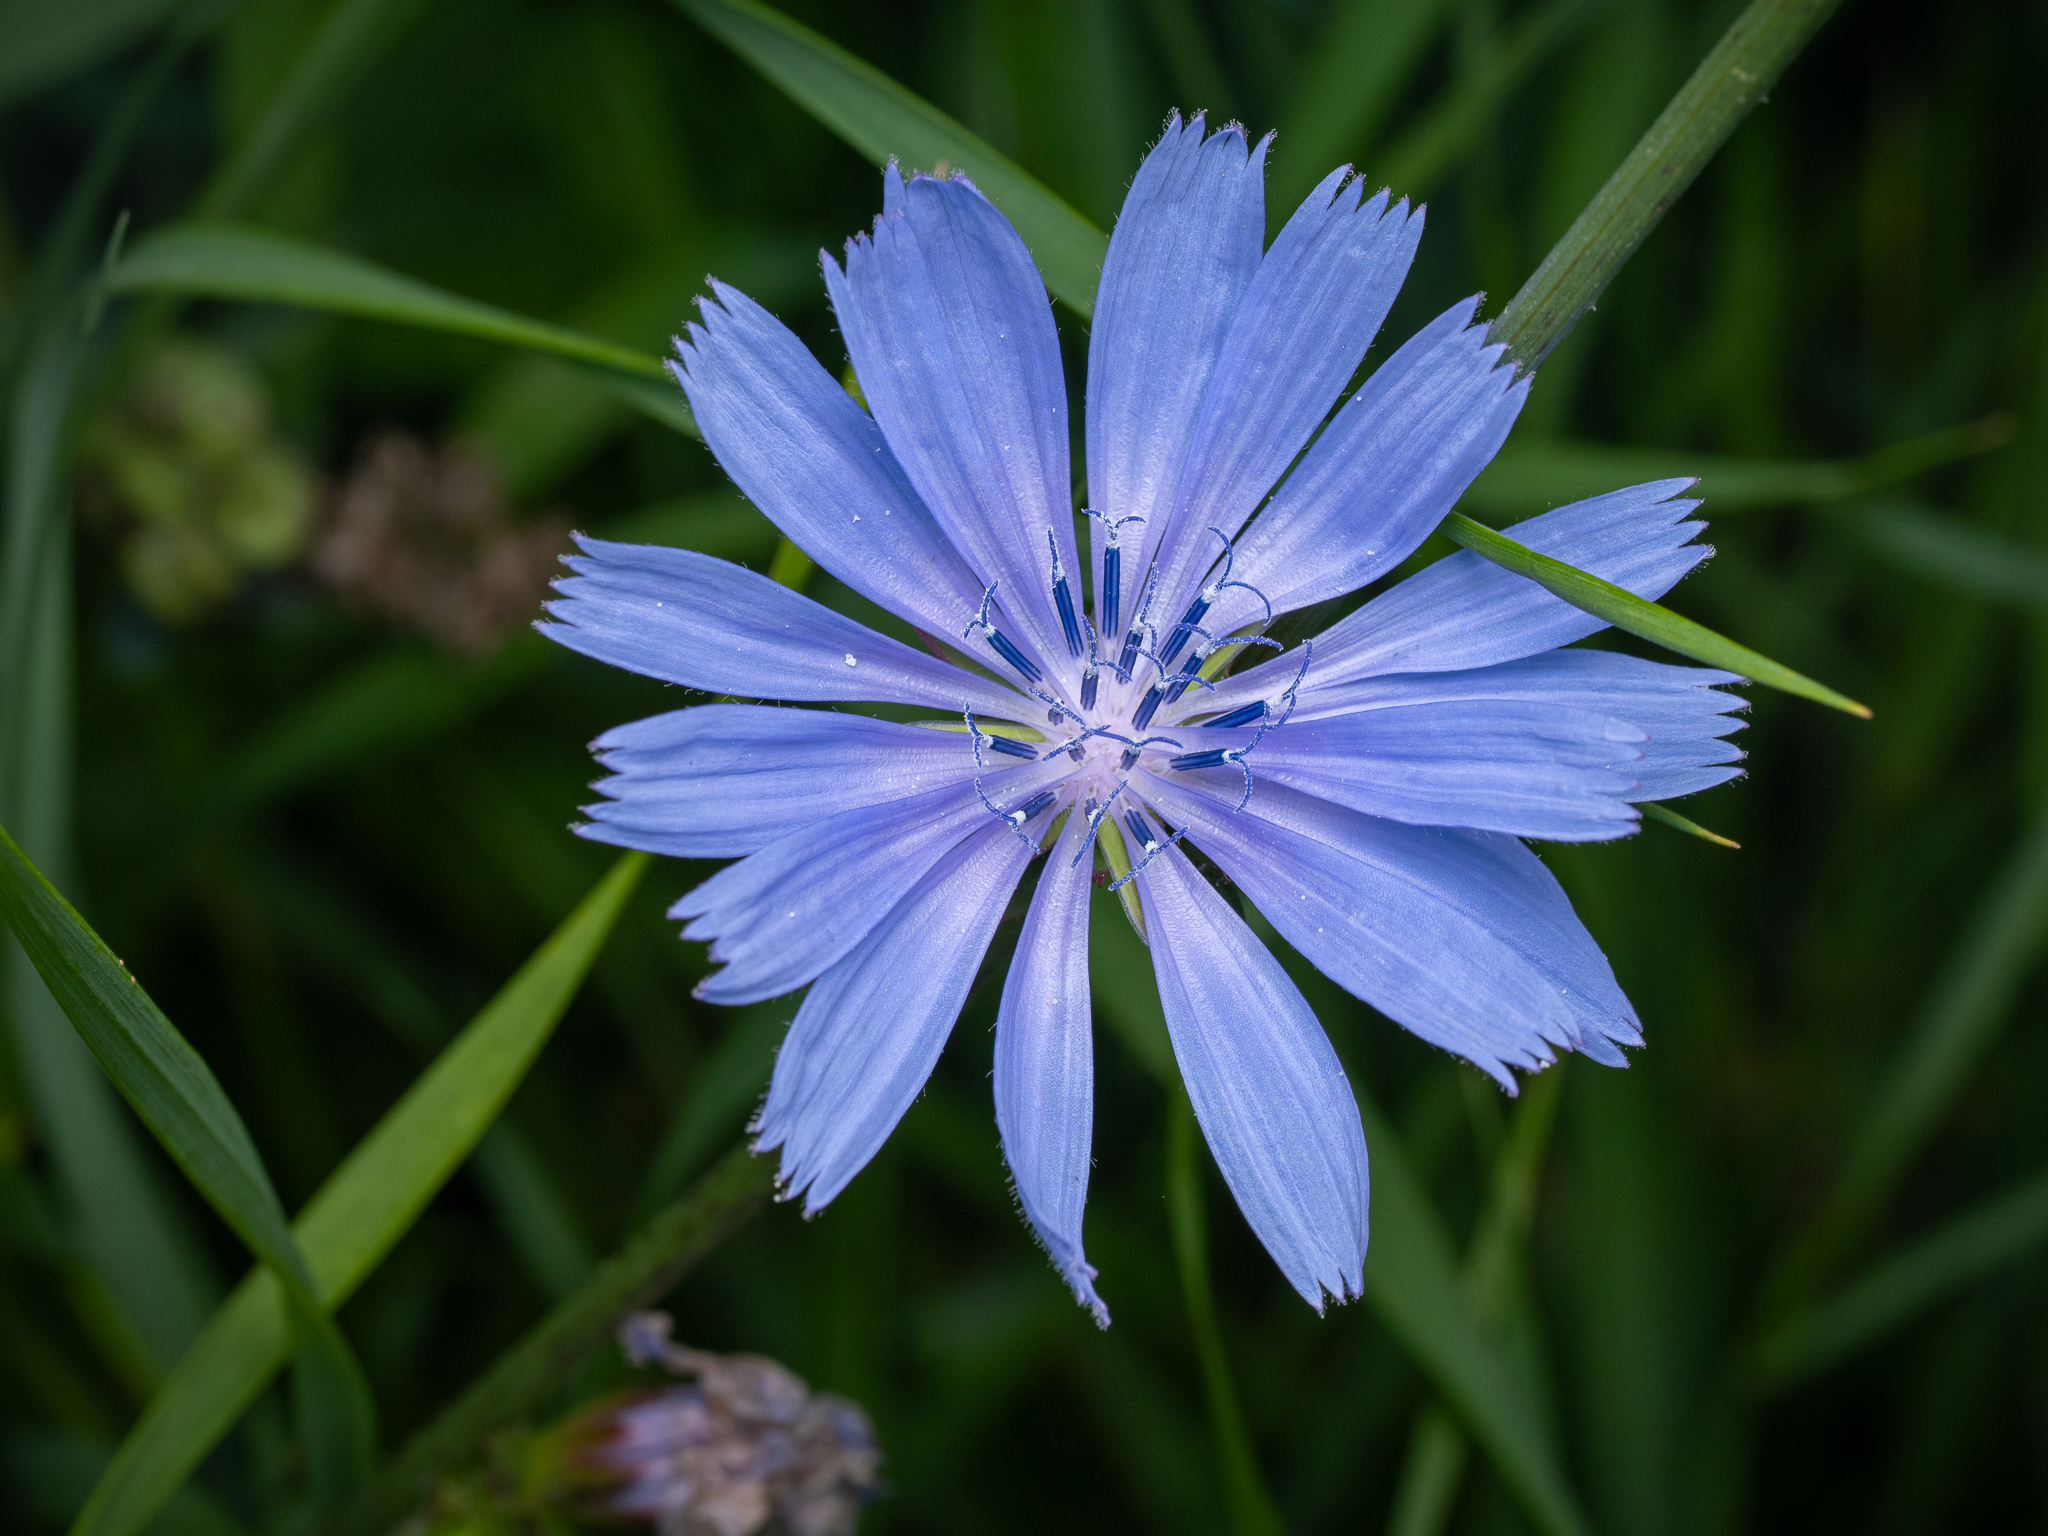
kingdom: Plantae
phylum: Tracheophyta
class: Magnoliopsida
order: Asterales
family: Asteraceae
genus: Cichorium
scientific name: Cichorium intybus
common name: Chicory
